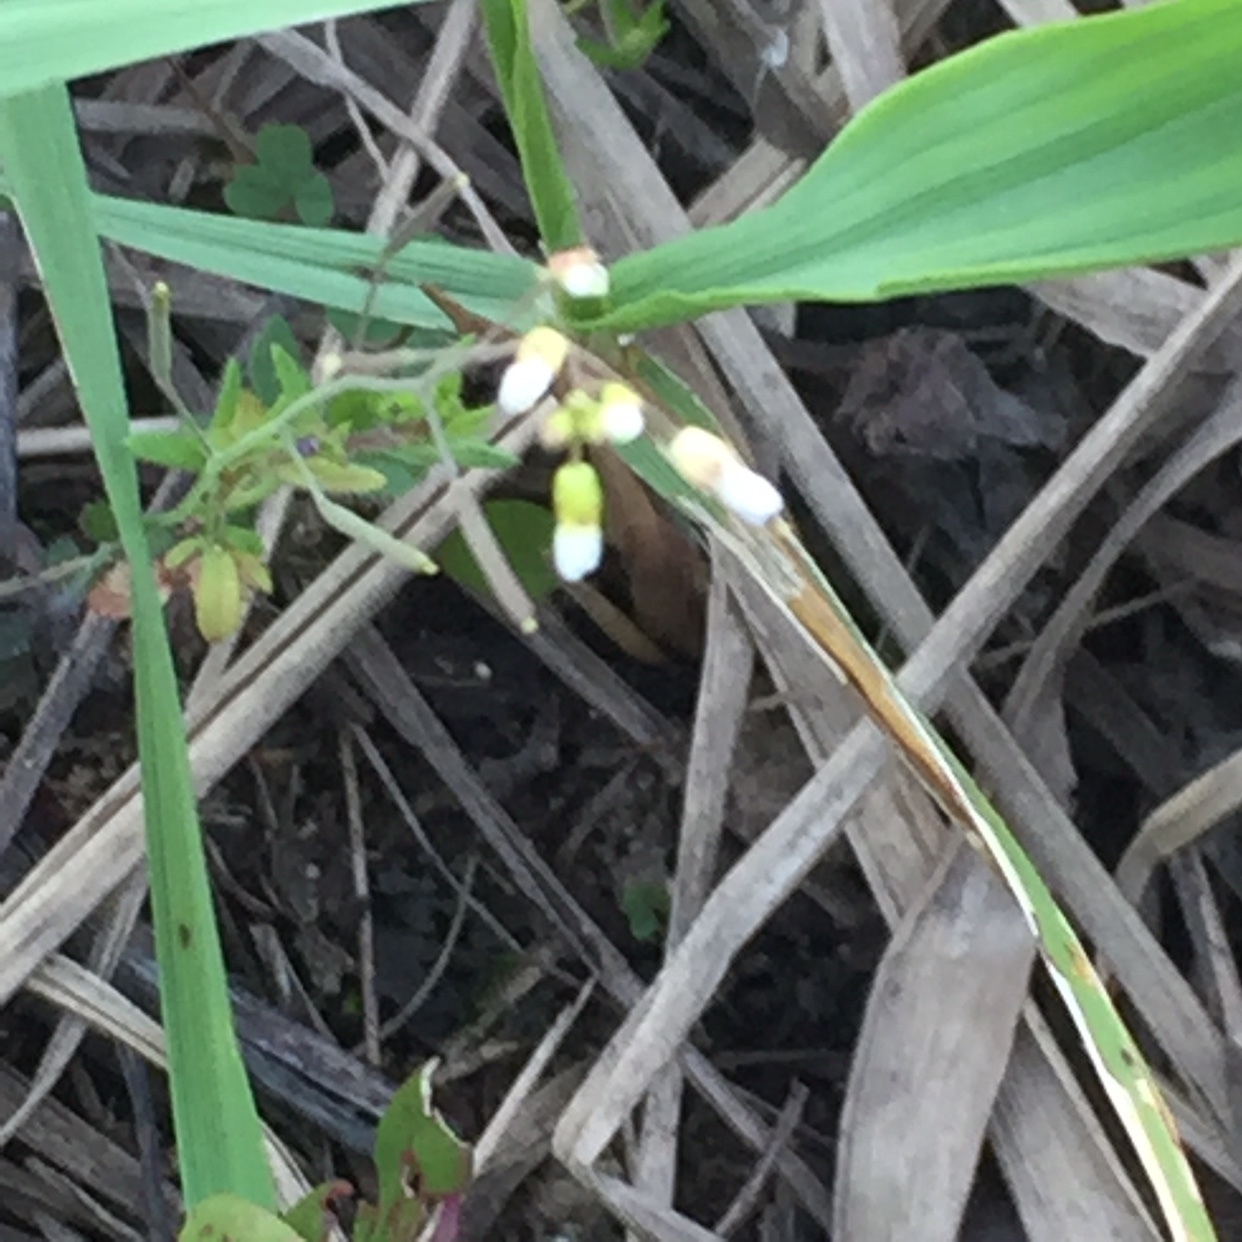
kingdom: Plantae
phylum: Tracheophyta
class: Magnoliopsida
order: Brassicales
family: Brassicaceae
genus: Arabidopsis
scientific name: Arabidopsis thaliana
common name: Thale cress
